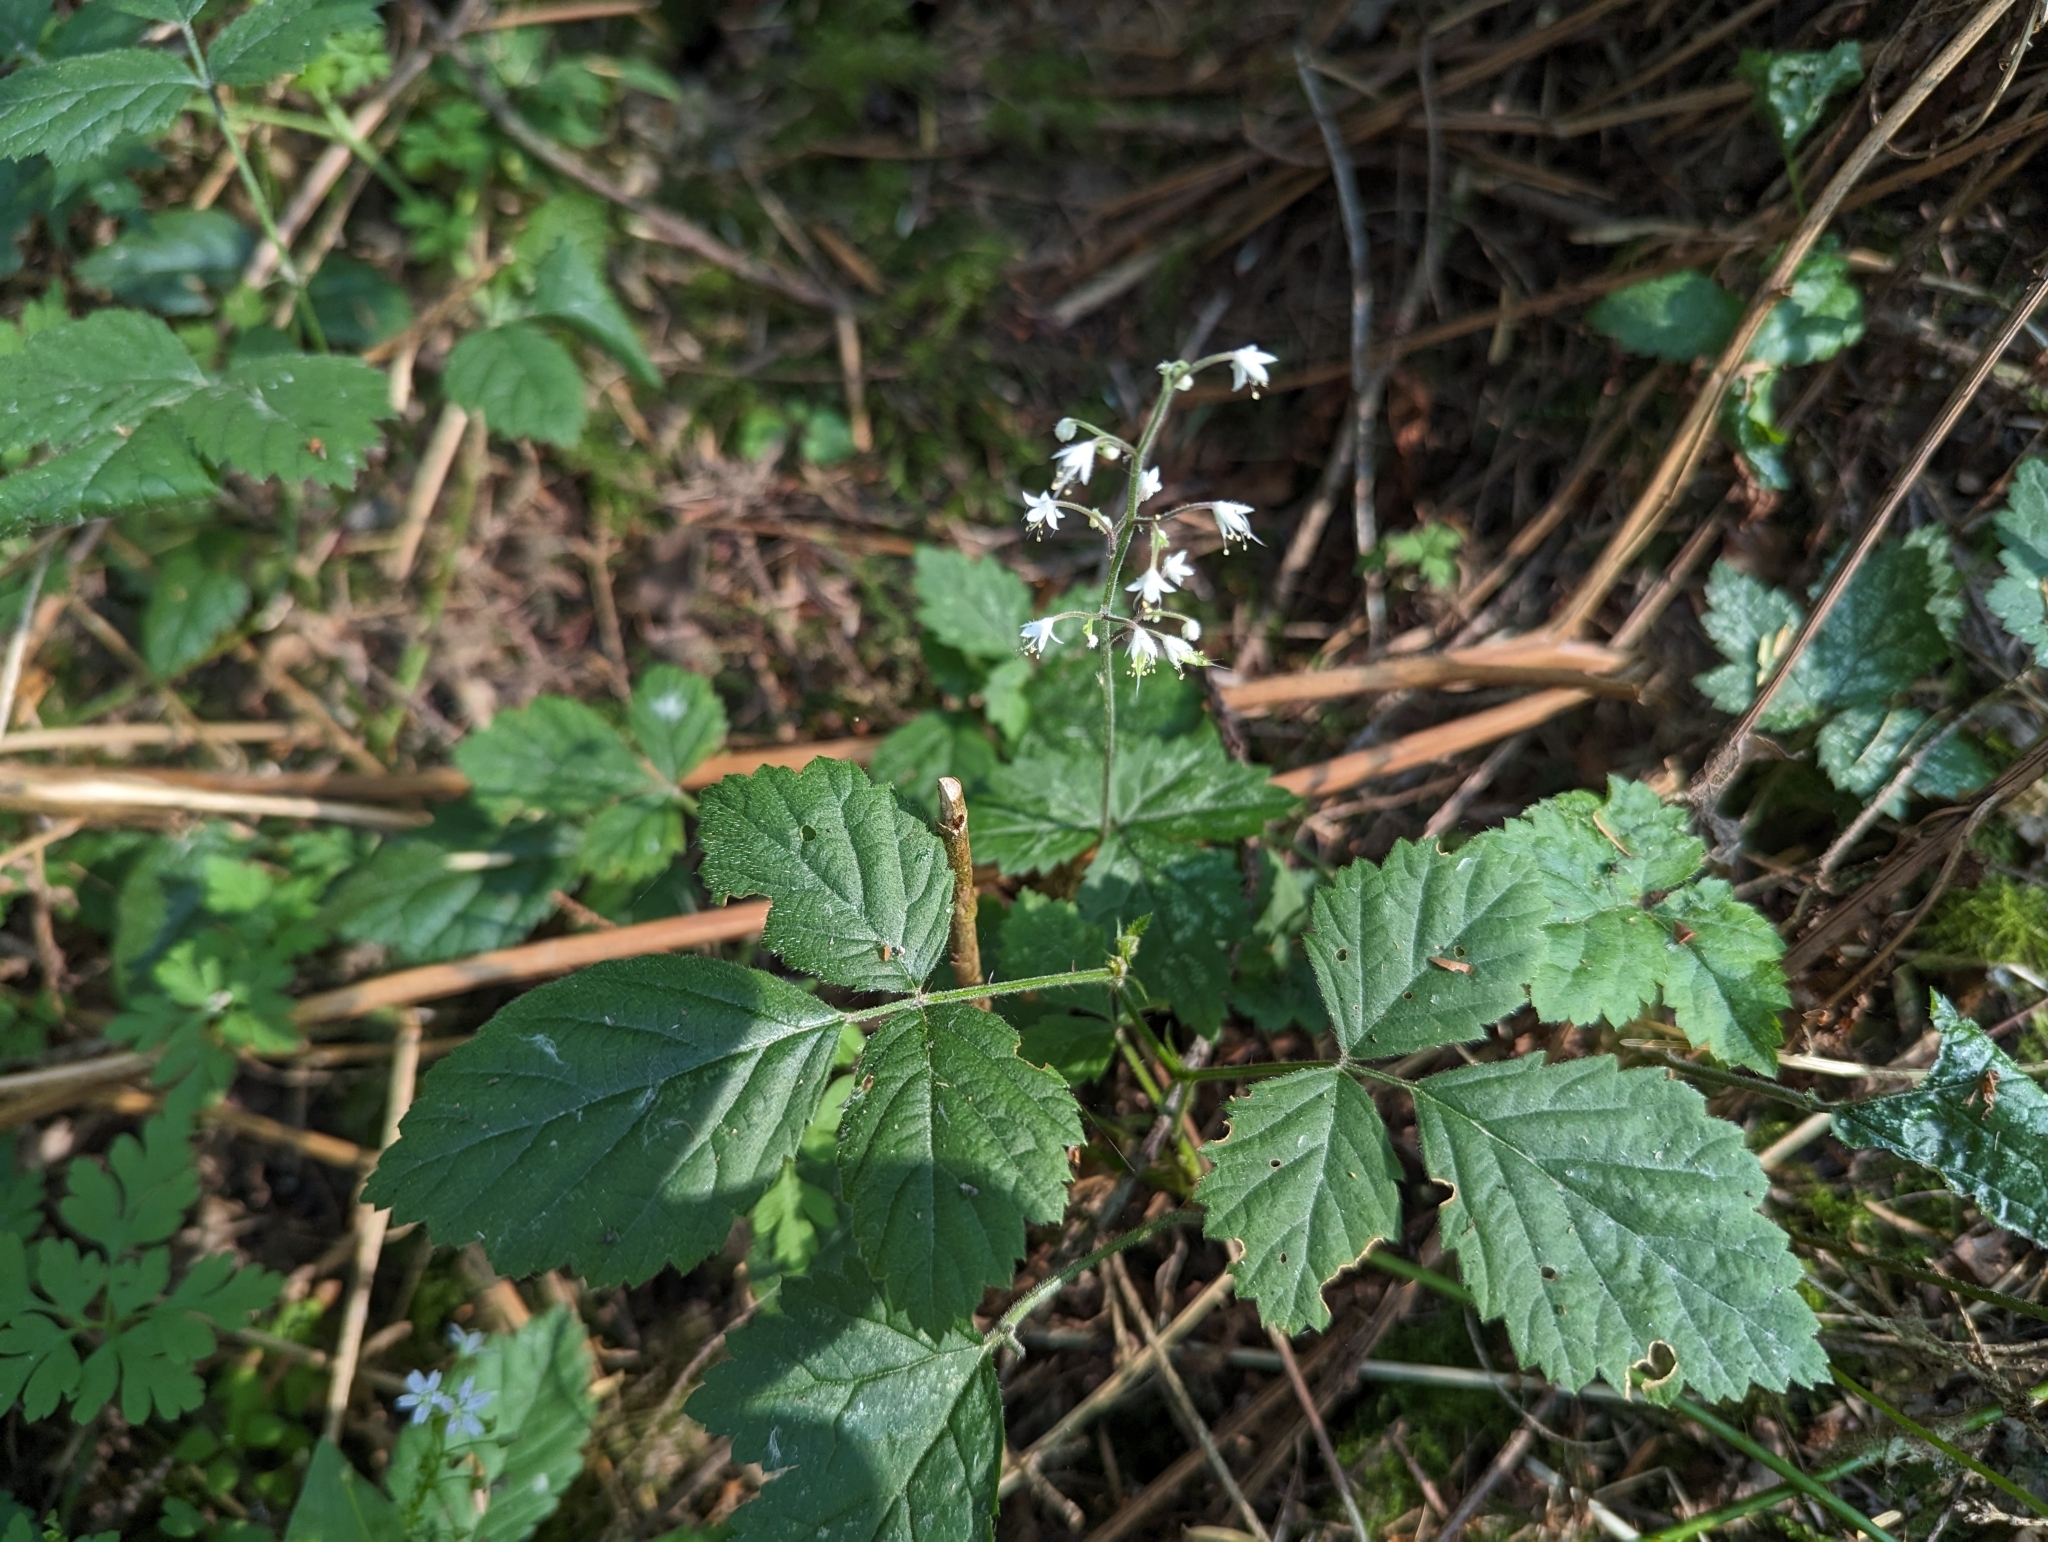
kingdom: Plantae
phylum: Tracheophyta
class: Magnoliopsida
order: Saxifragales
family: Saxifragaceae
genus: Tiarella
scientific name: Tiarella trifoliata
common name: Sugar-scoop
